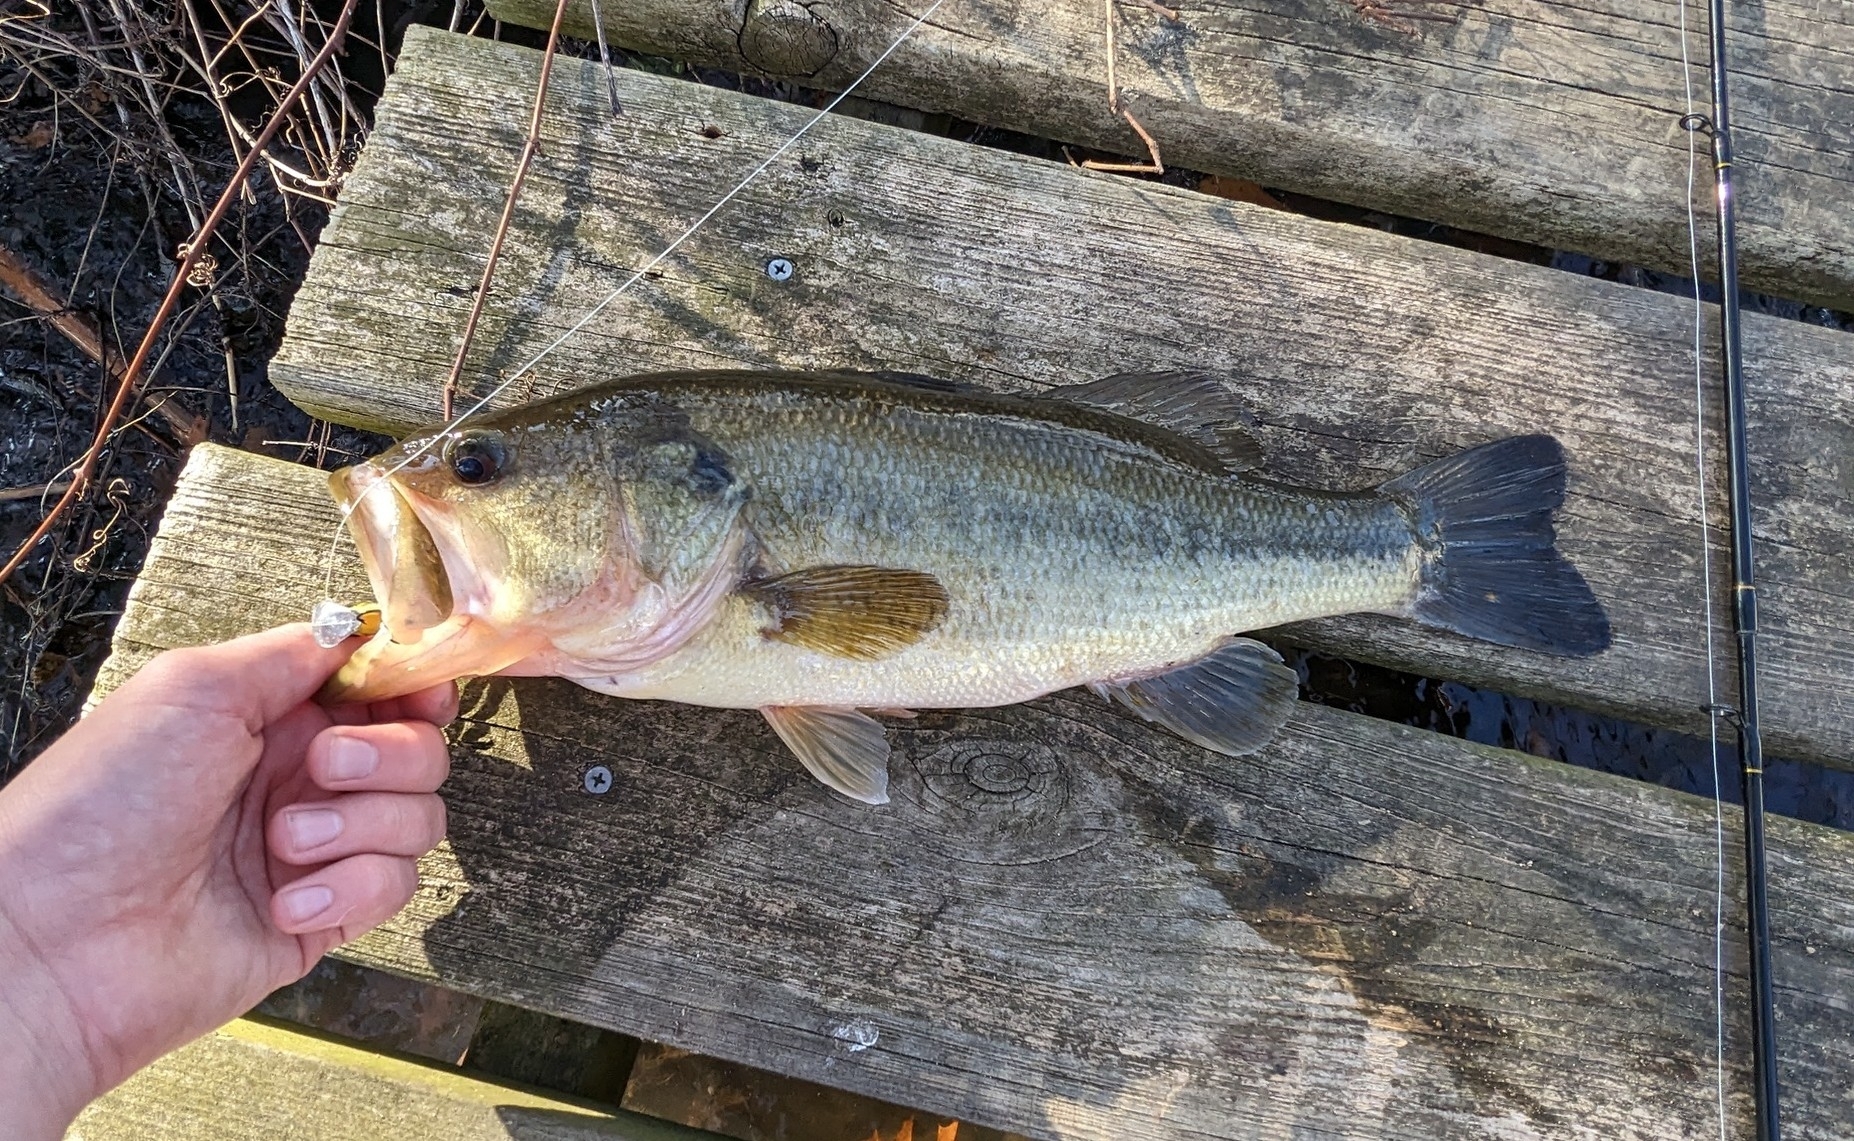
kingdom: Animalia
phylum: Chordata
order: Perciformes
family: Centrarchidae
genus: Micropterus
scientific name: Micropterus
